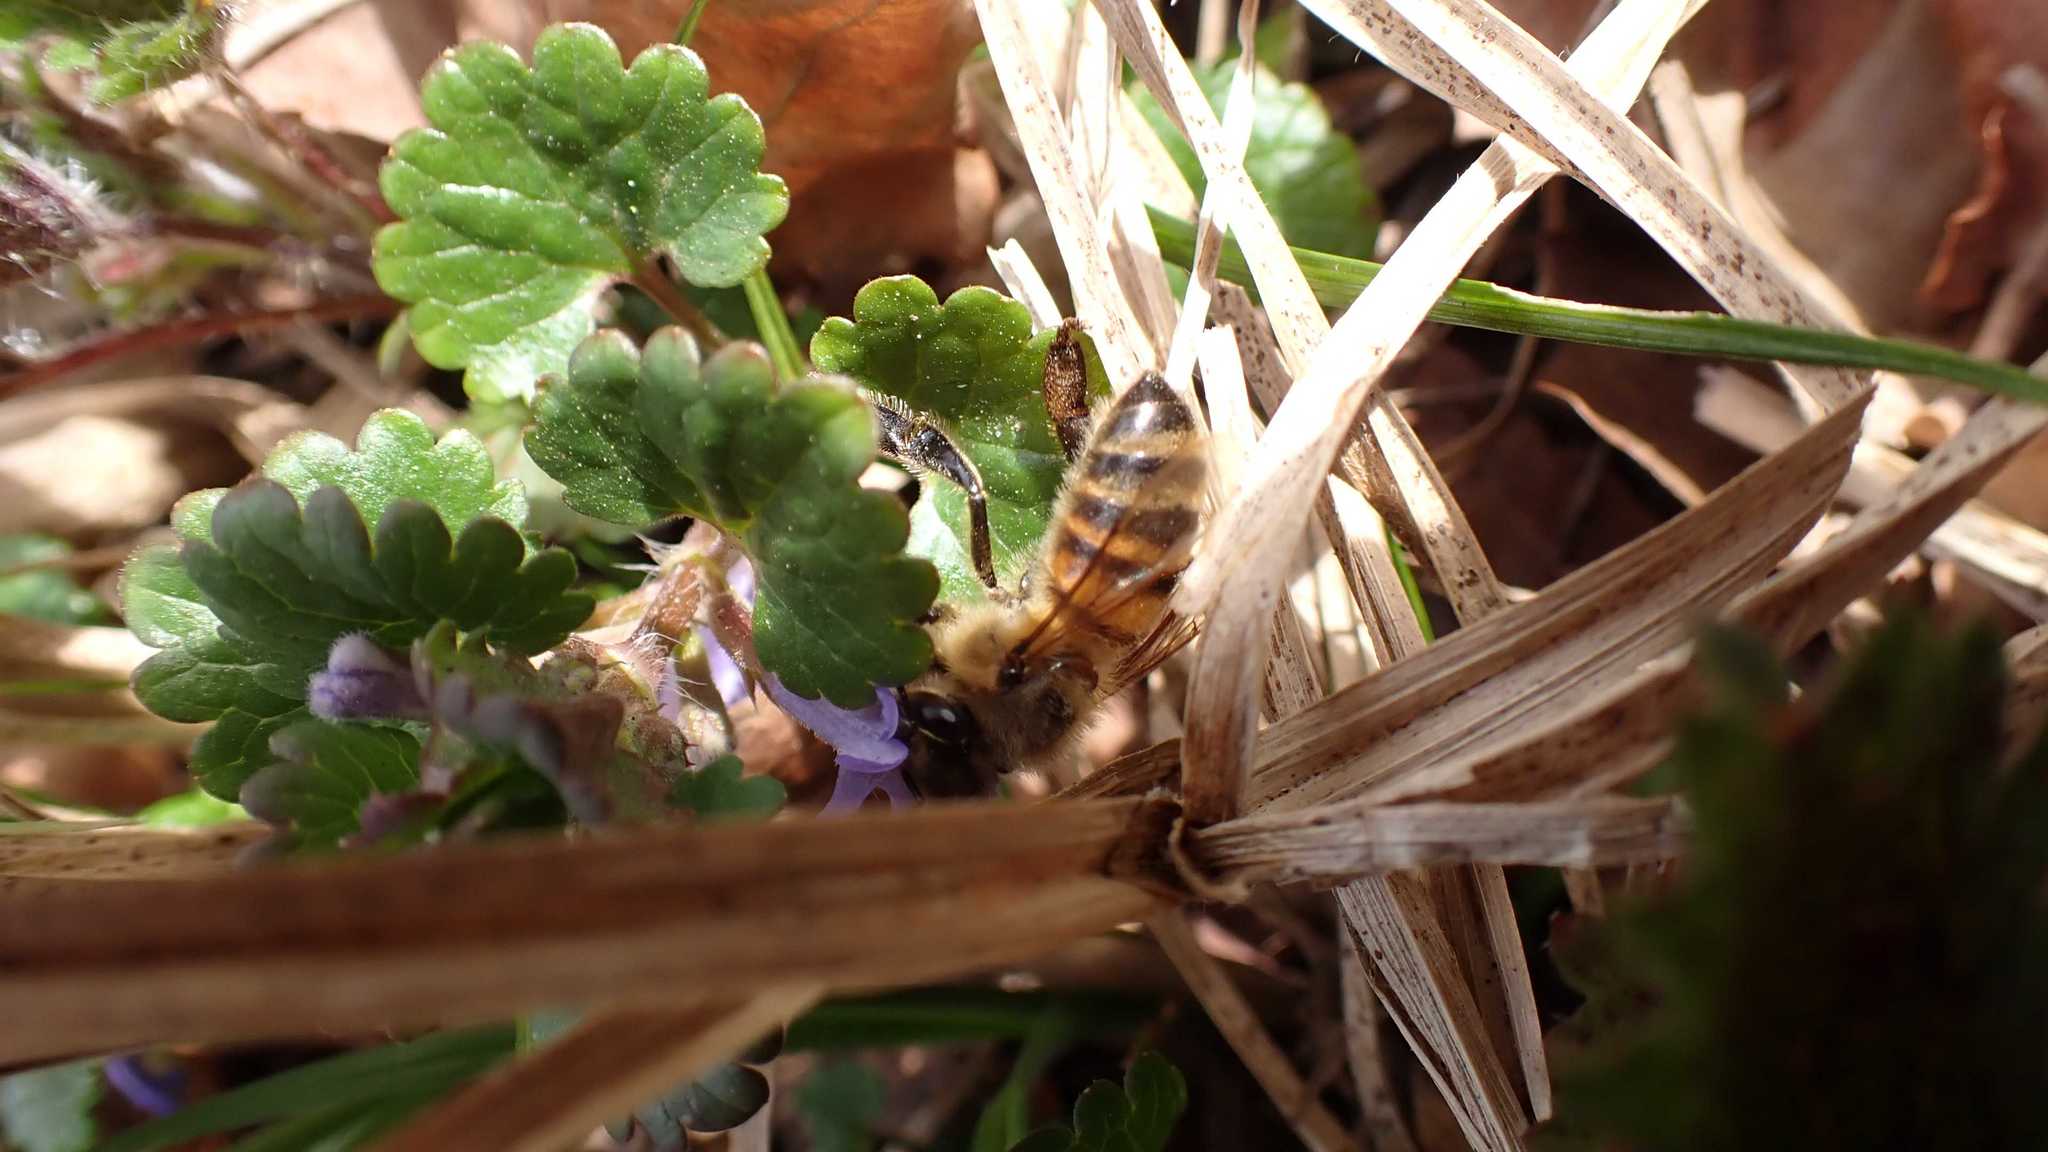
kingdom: Animalia
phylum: Arthropoda
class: Insecta
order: Hymenoptera
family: Apidae
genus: Apis
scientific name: Apis mellifera
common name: Honey bee
